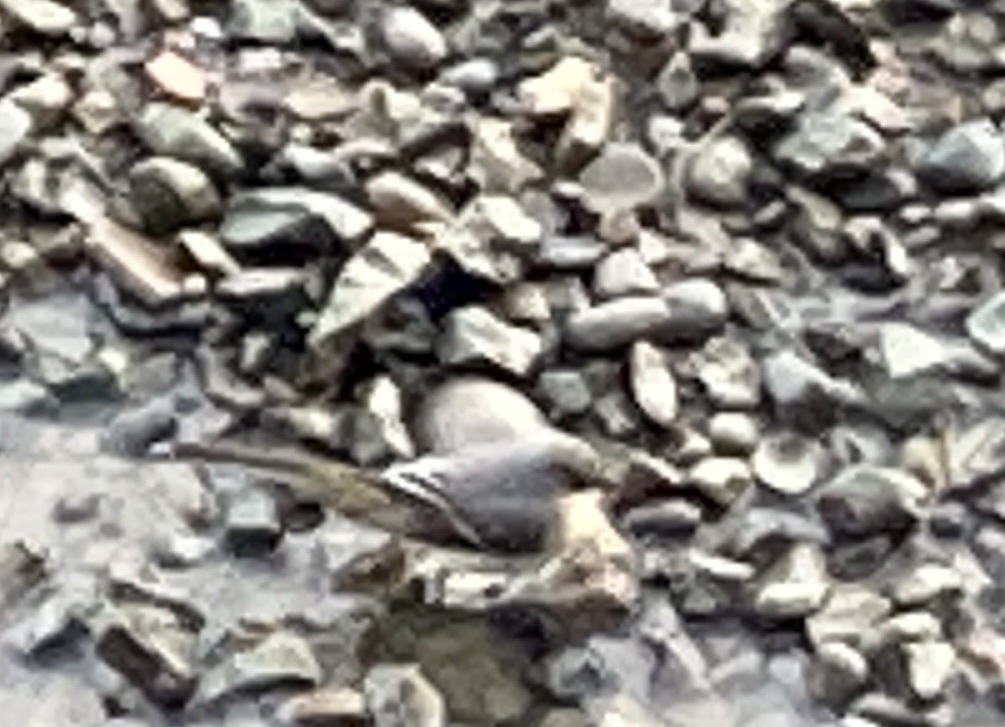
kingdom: Animalia
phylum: Chordata
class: Aves
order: Passeriformes
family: Motacillidae
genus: Motacilla
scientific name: Motacilla cinerea
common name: Grey wagtail
